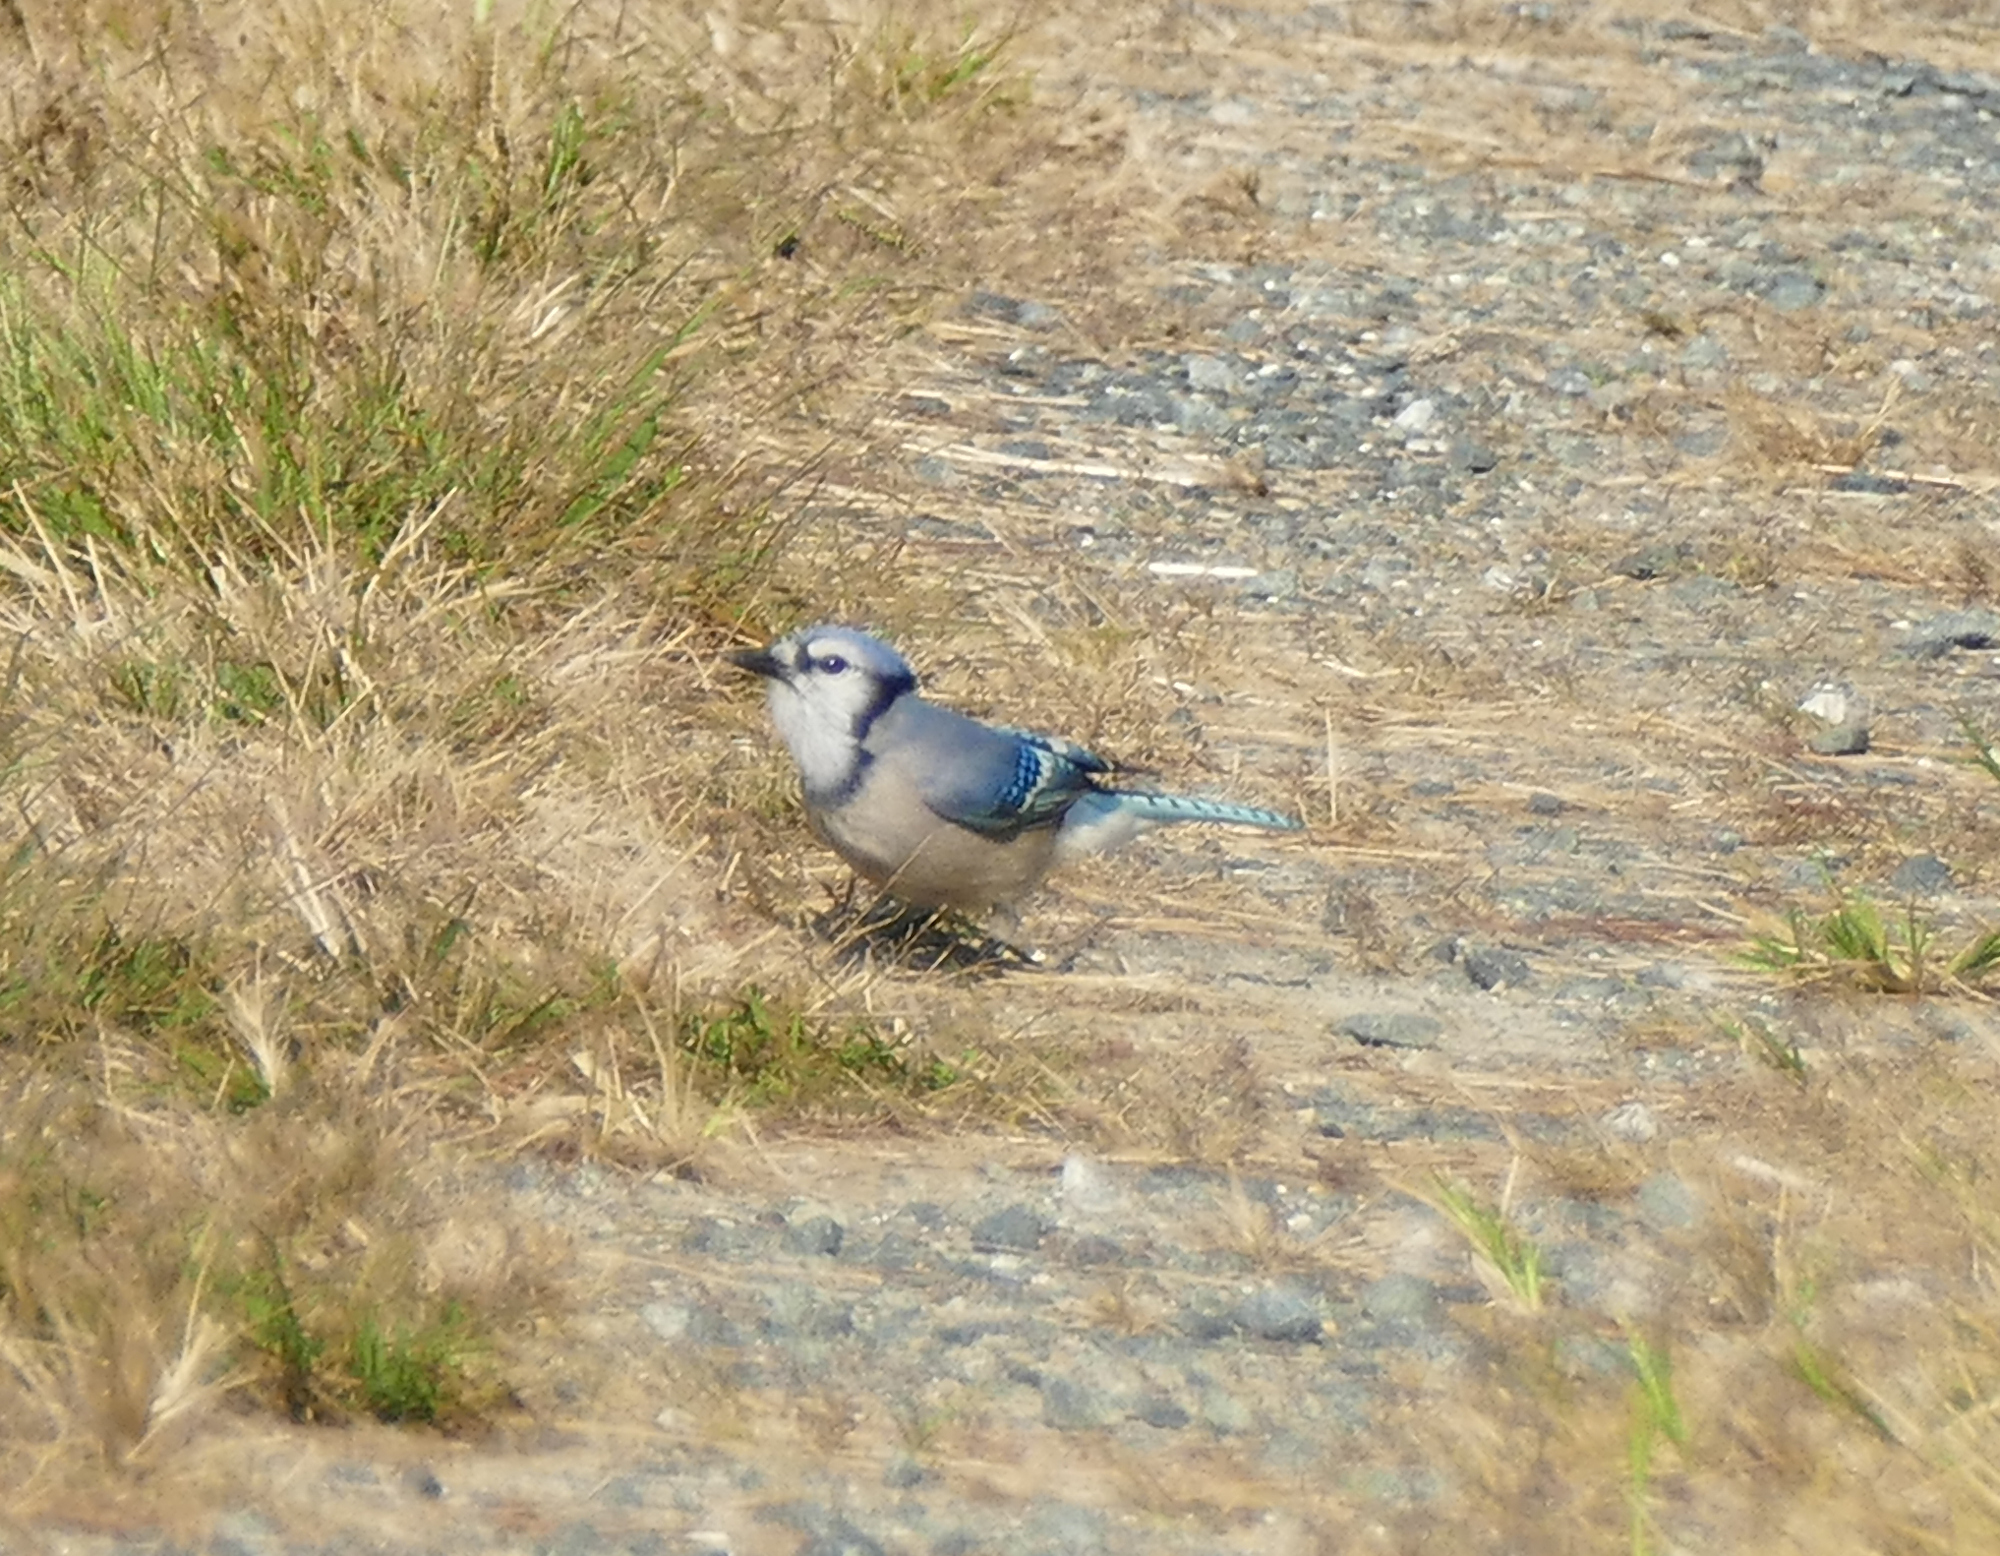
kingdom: Animalia
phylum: Chordata
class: Aves
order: Passeriformes
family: Corvidae
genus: Cyanocitta
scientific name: Cyanocitta cristata
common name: Blue jay
